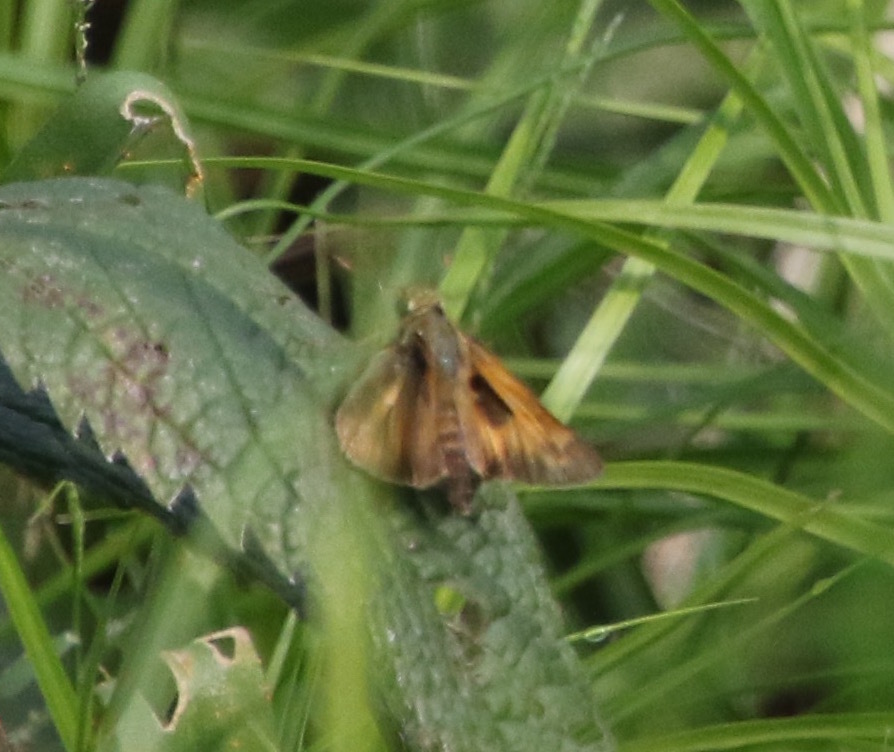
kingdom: Animalia
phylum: Arthropoda
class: Insecta
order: Lepidoptera
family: Hesperiidae
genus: Atalopedes
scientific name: Atalopedes
